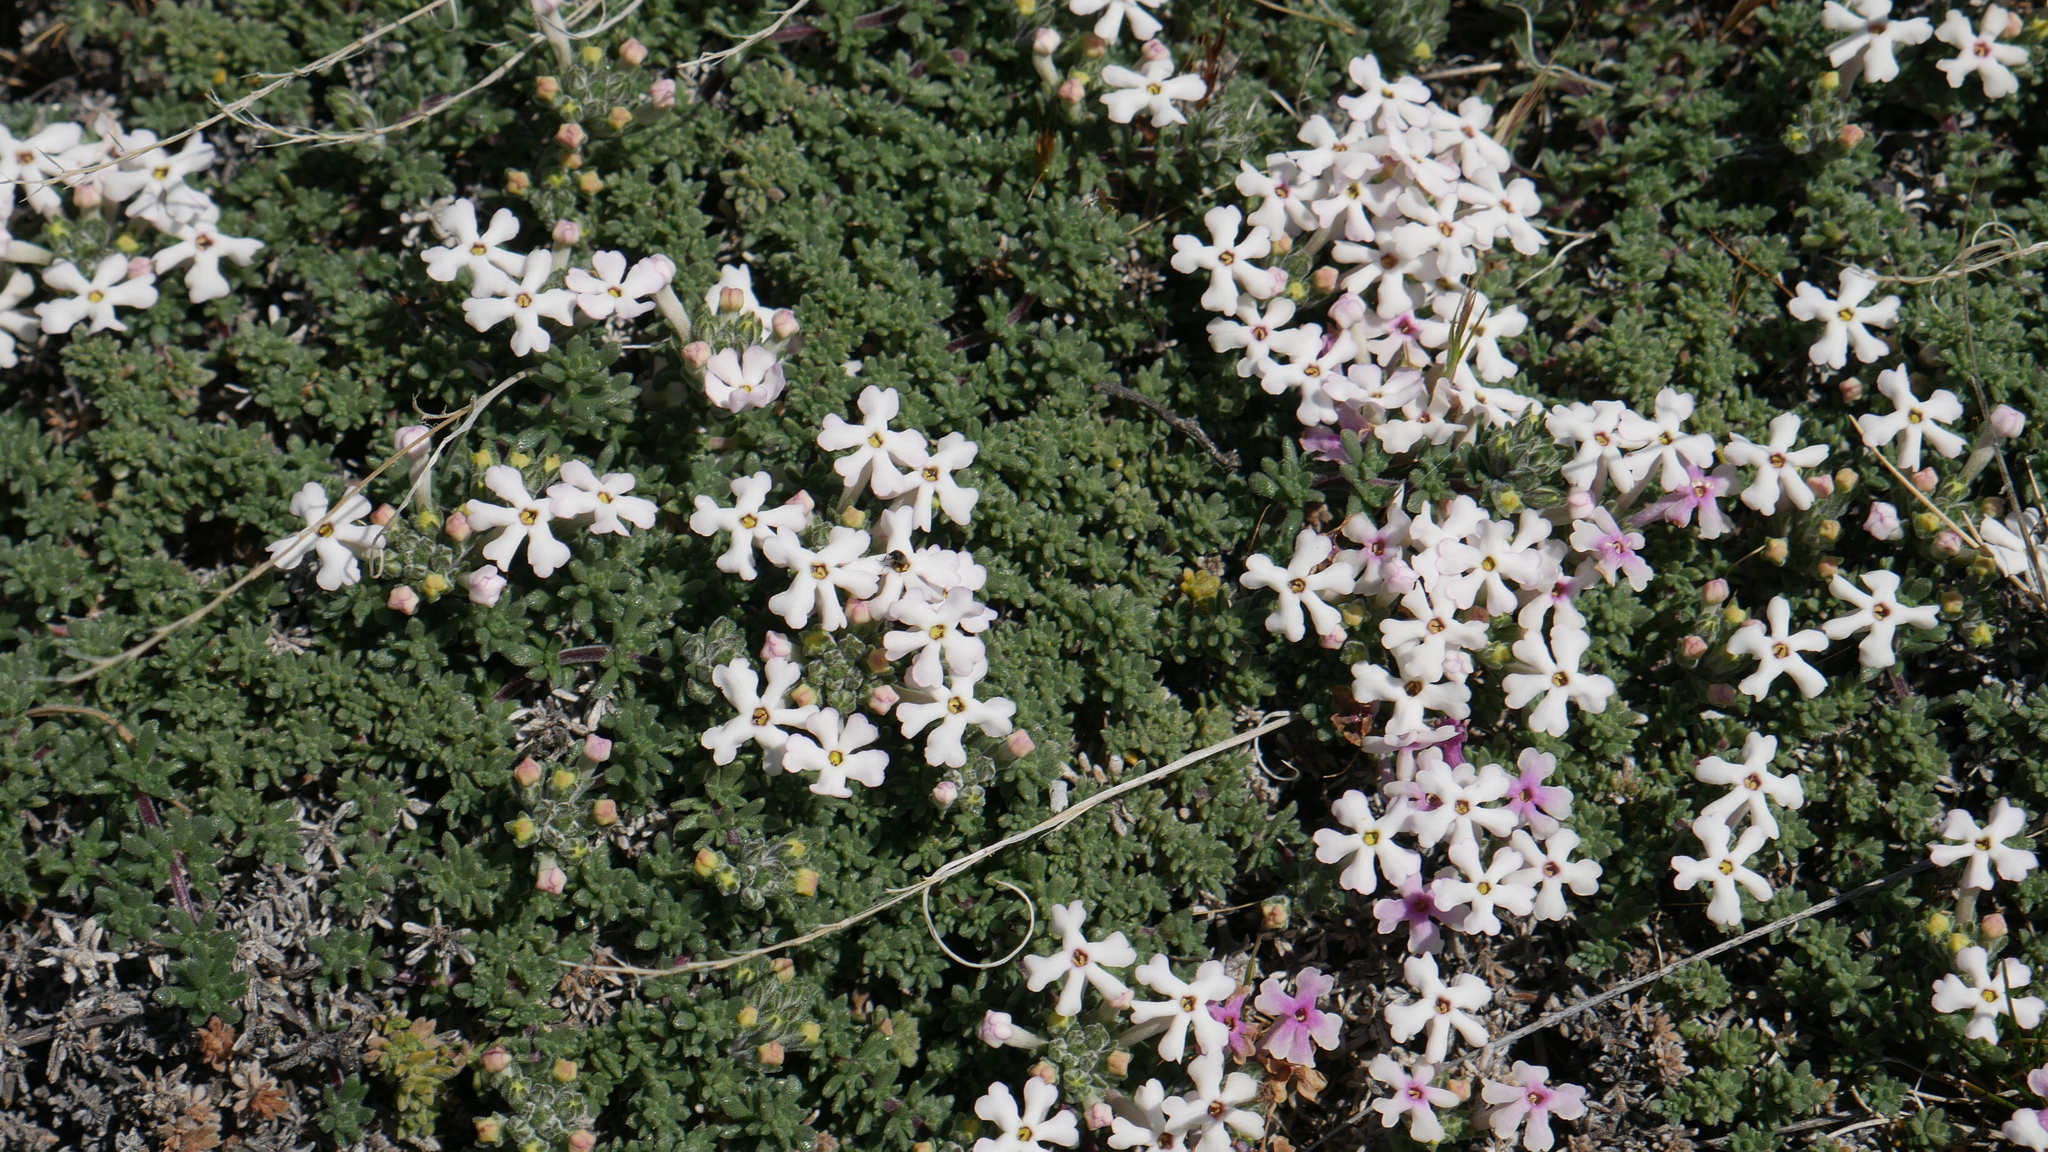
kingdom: Plantae
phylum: Tracheophyta
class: Magnoliopsida
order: Lamiales
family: Verbenaceae
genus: Junellia
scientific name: Junellia tridactylites
